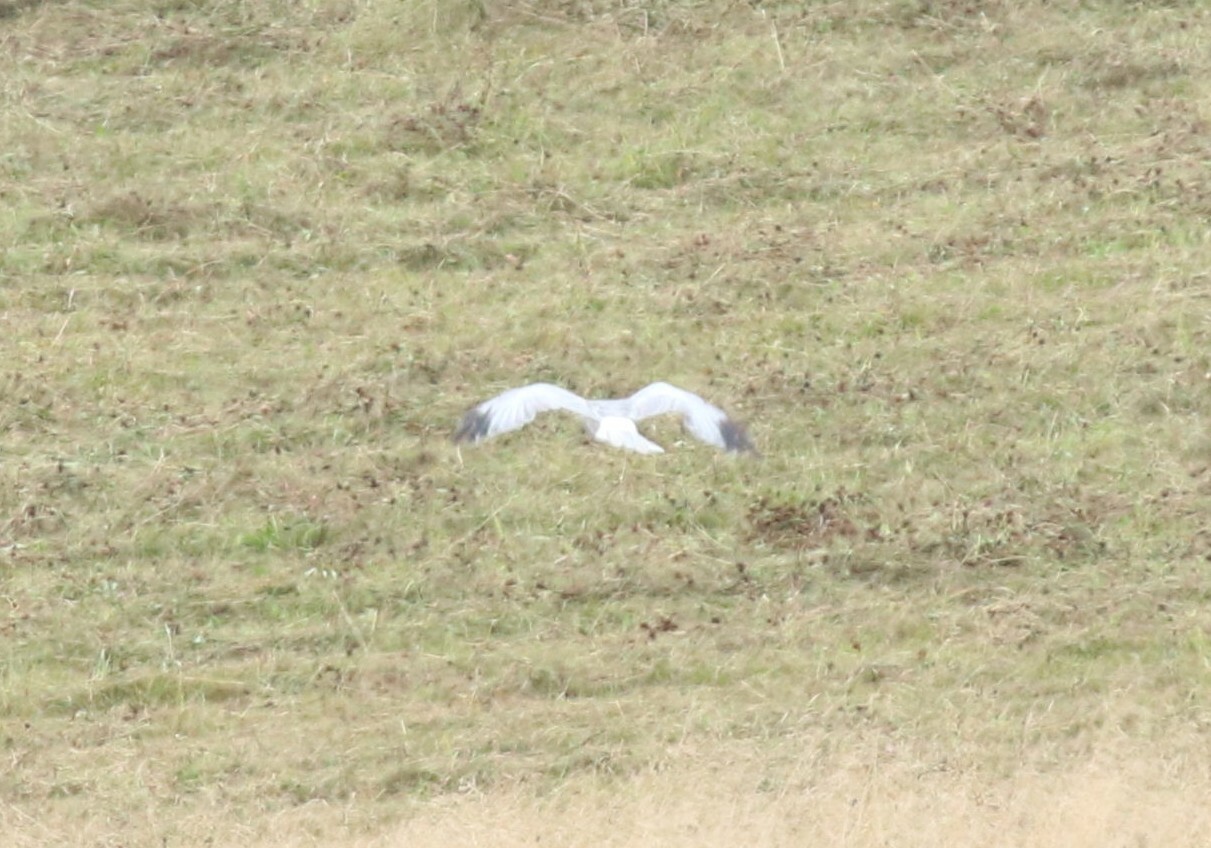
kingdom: Animalia
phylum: Chordata
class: Aves
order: Accipitriformes
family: Accipitridae
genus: Circus
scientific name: Circus cyaneus
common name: Hen harrier
